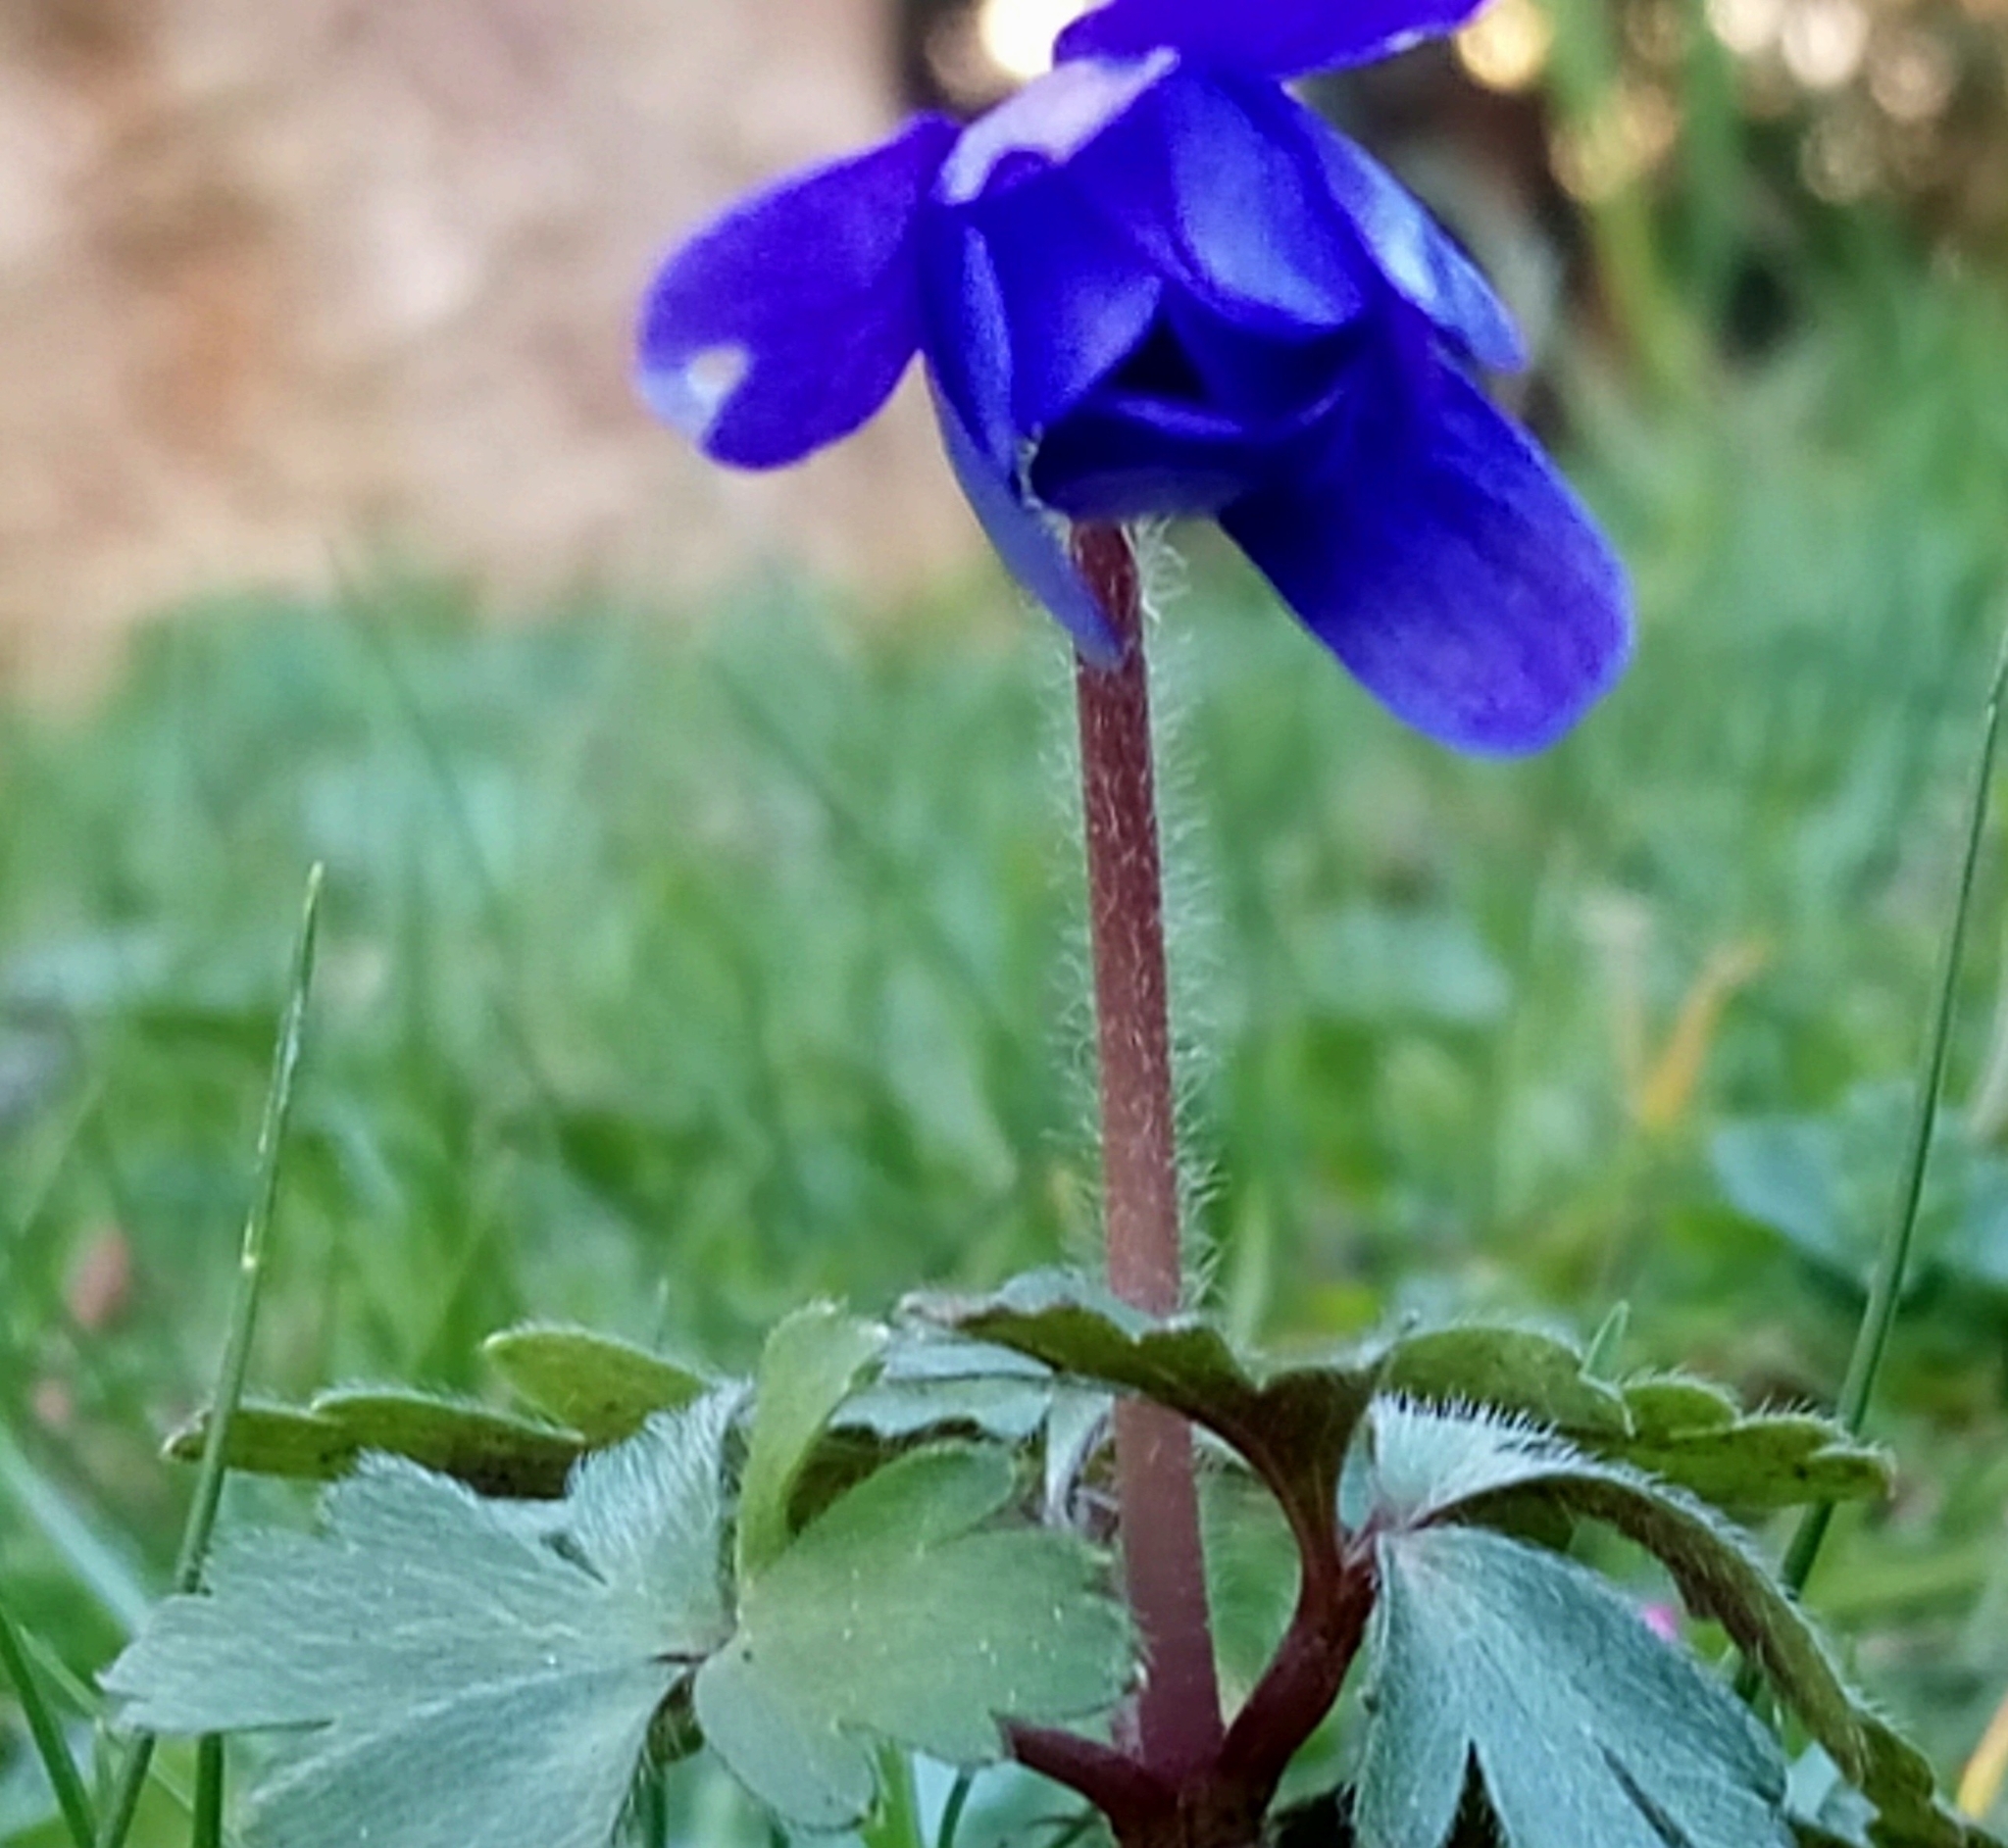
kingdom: Plantae
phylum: Tracheophyta
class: Magnoliopsida
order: Ranunculales
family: Ranunculaceae
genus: Anemone
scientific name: Anemone blanda
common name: Balkan anemone
